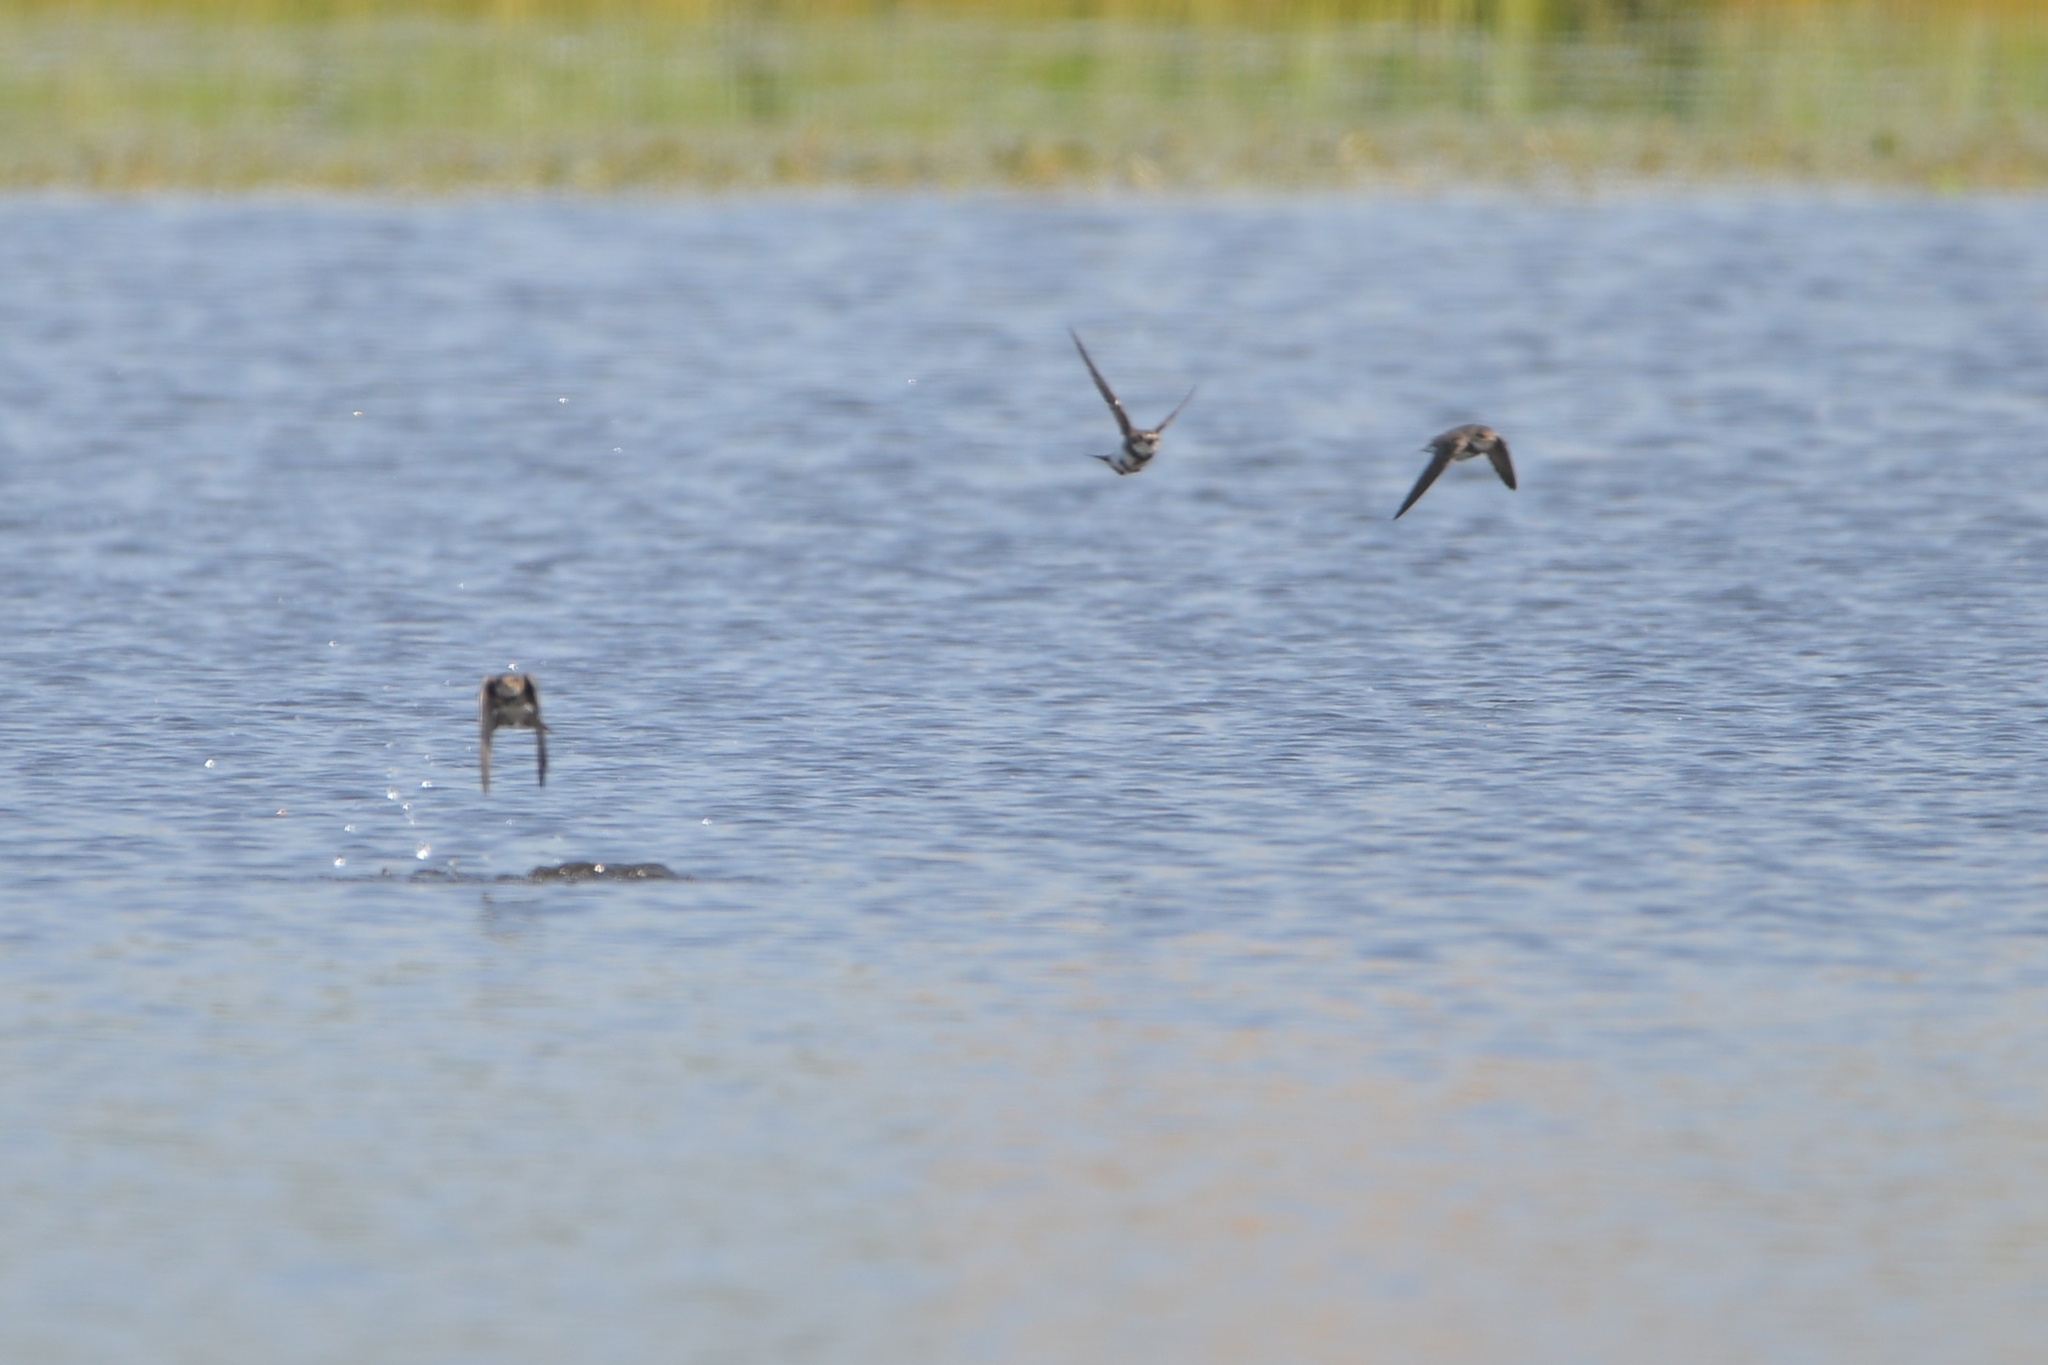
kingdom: Animalia
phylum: Chordata
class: Aves
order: Passeriformes
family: Hirundinidae
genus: Riparia
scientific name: Riparia riparia
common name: Sand martin
